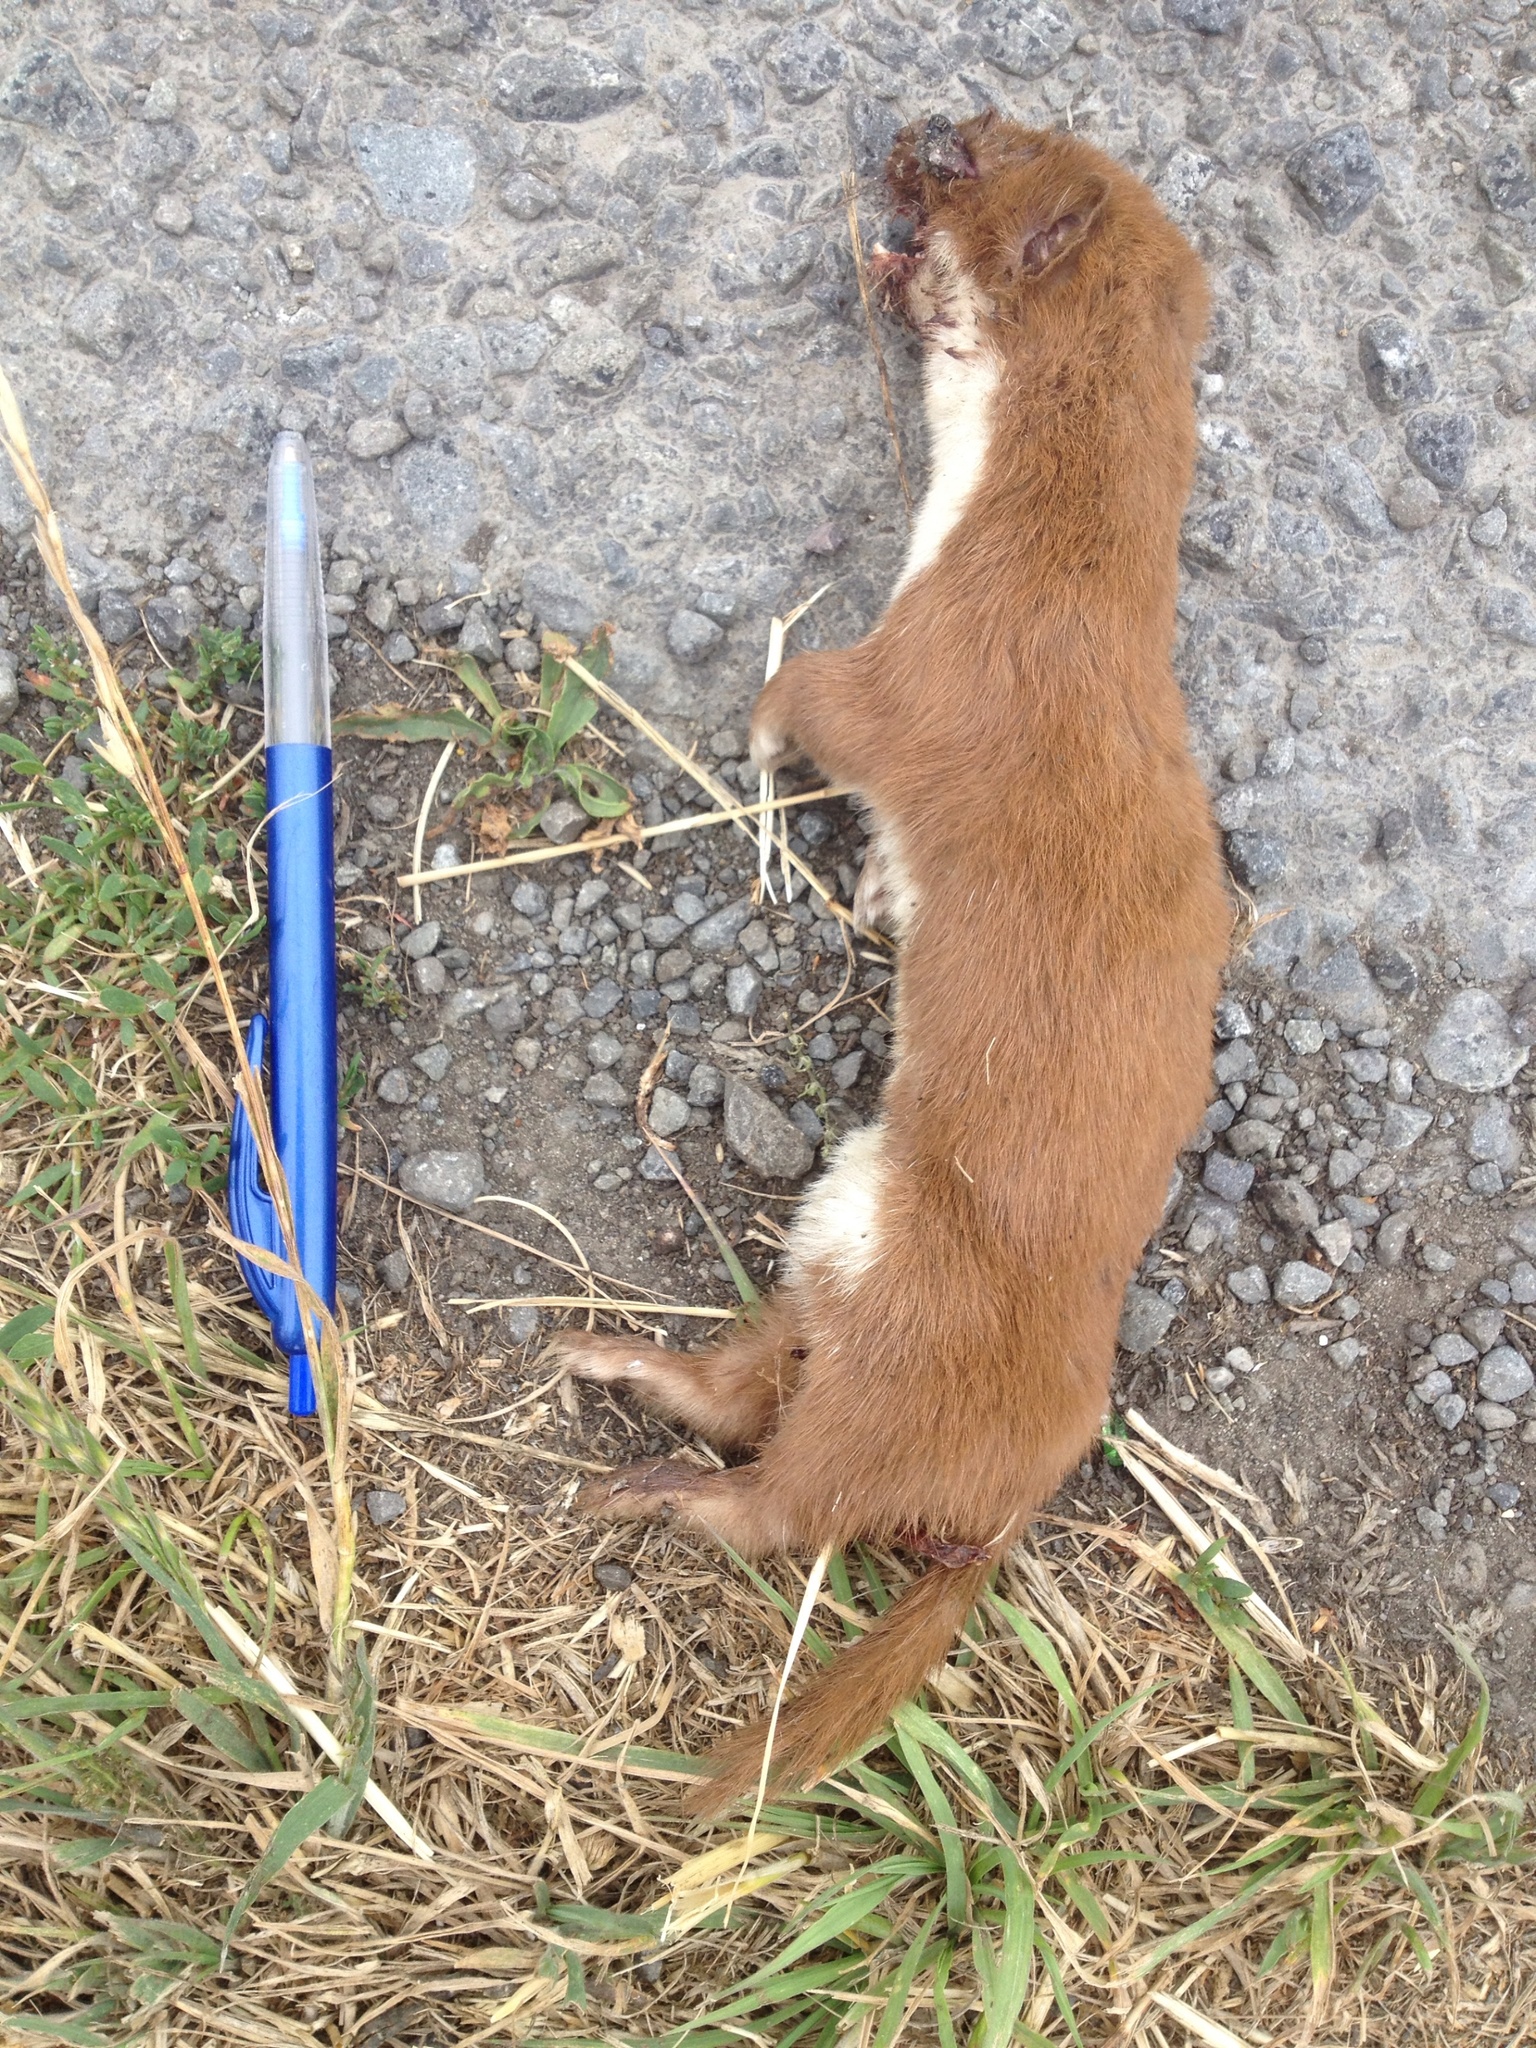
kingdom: Animalia
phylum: Chordata
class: Mammalia
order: Carnivora
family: Mustelidae
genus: Mustela
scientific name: Mustela nivalis
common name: Least weasel
